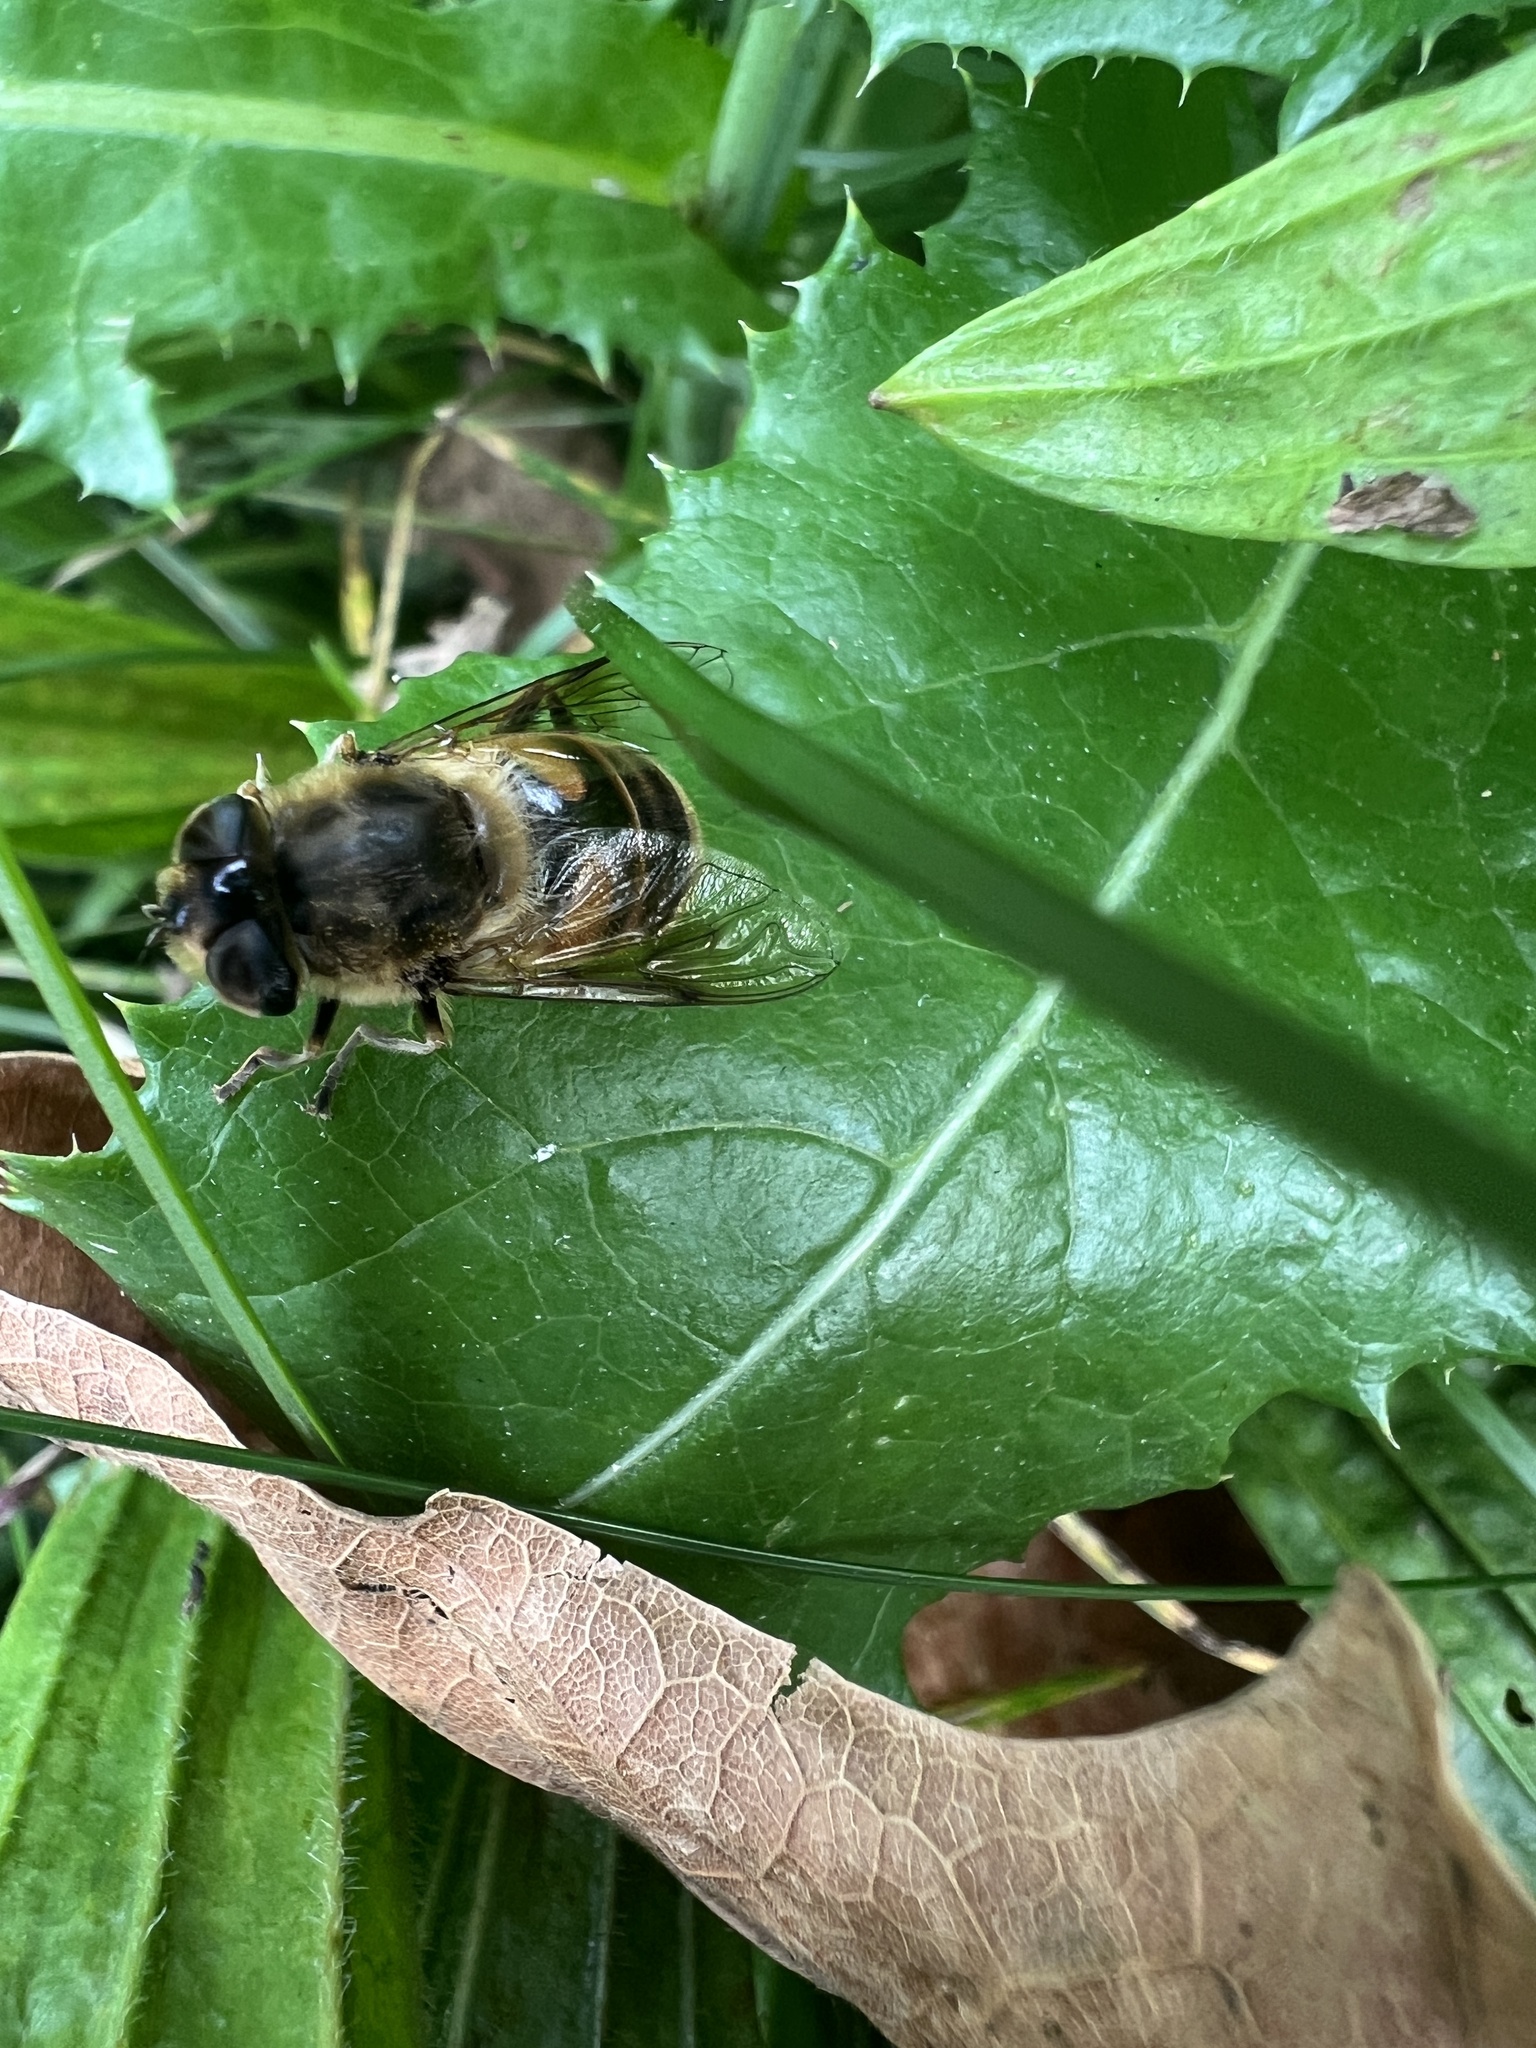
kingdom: Animalia
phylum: Arthropoda
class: Insecta
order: Diptera
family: Syrphidae
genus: Eristalis
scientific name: Eristalis tenax
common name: Drone fly
